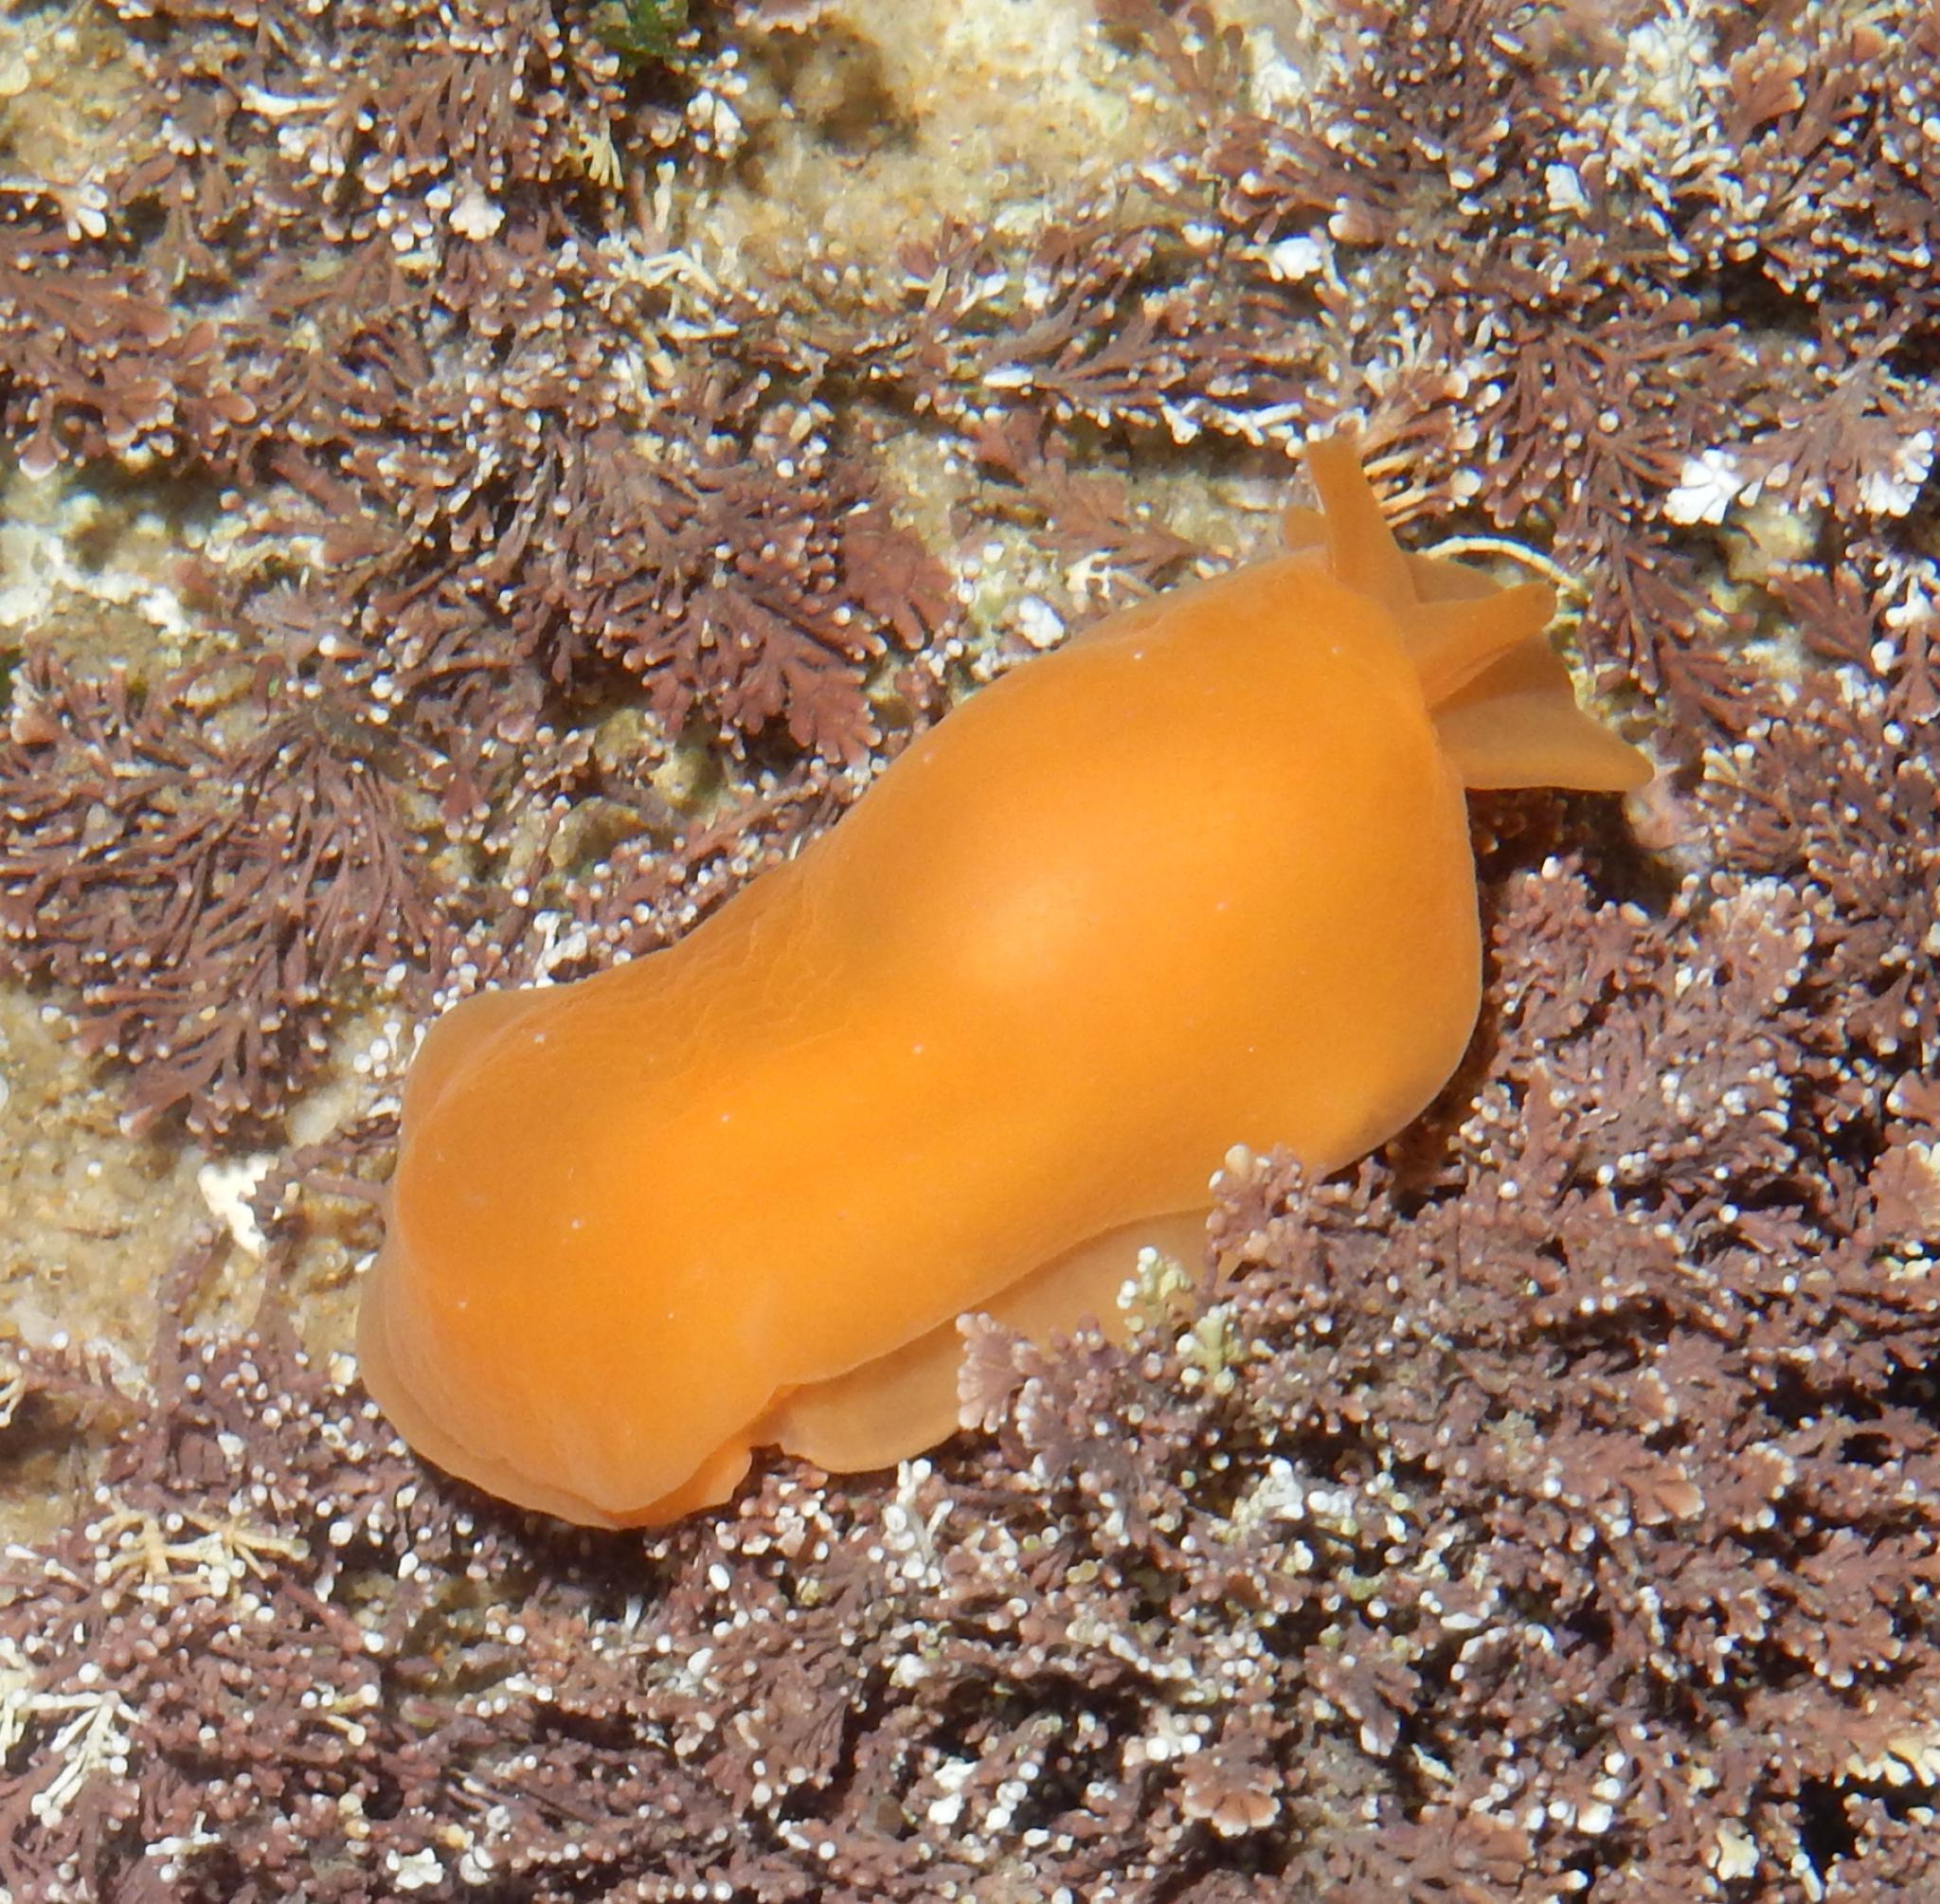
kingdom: Animalia
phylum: Mollusca
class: Gastropoda
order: Pleurobranchida
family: Pleurobranchidae
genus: Berthellina
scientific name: Berthellina granulata
